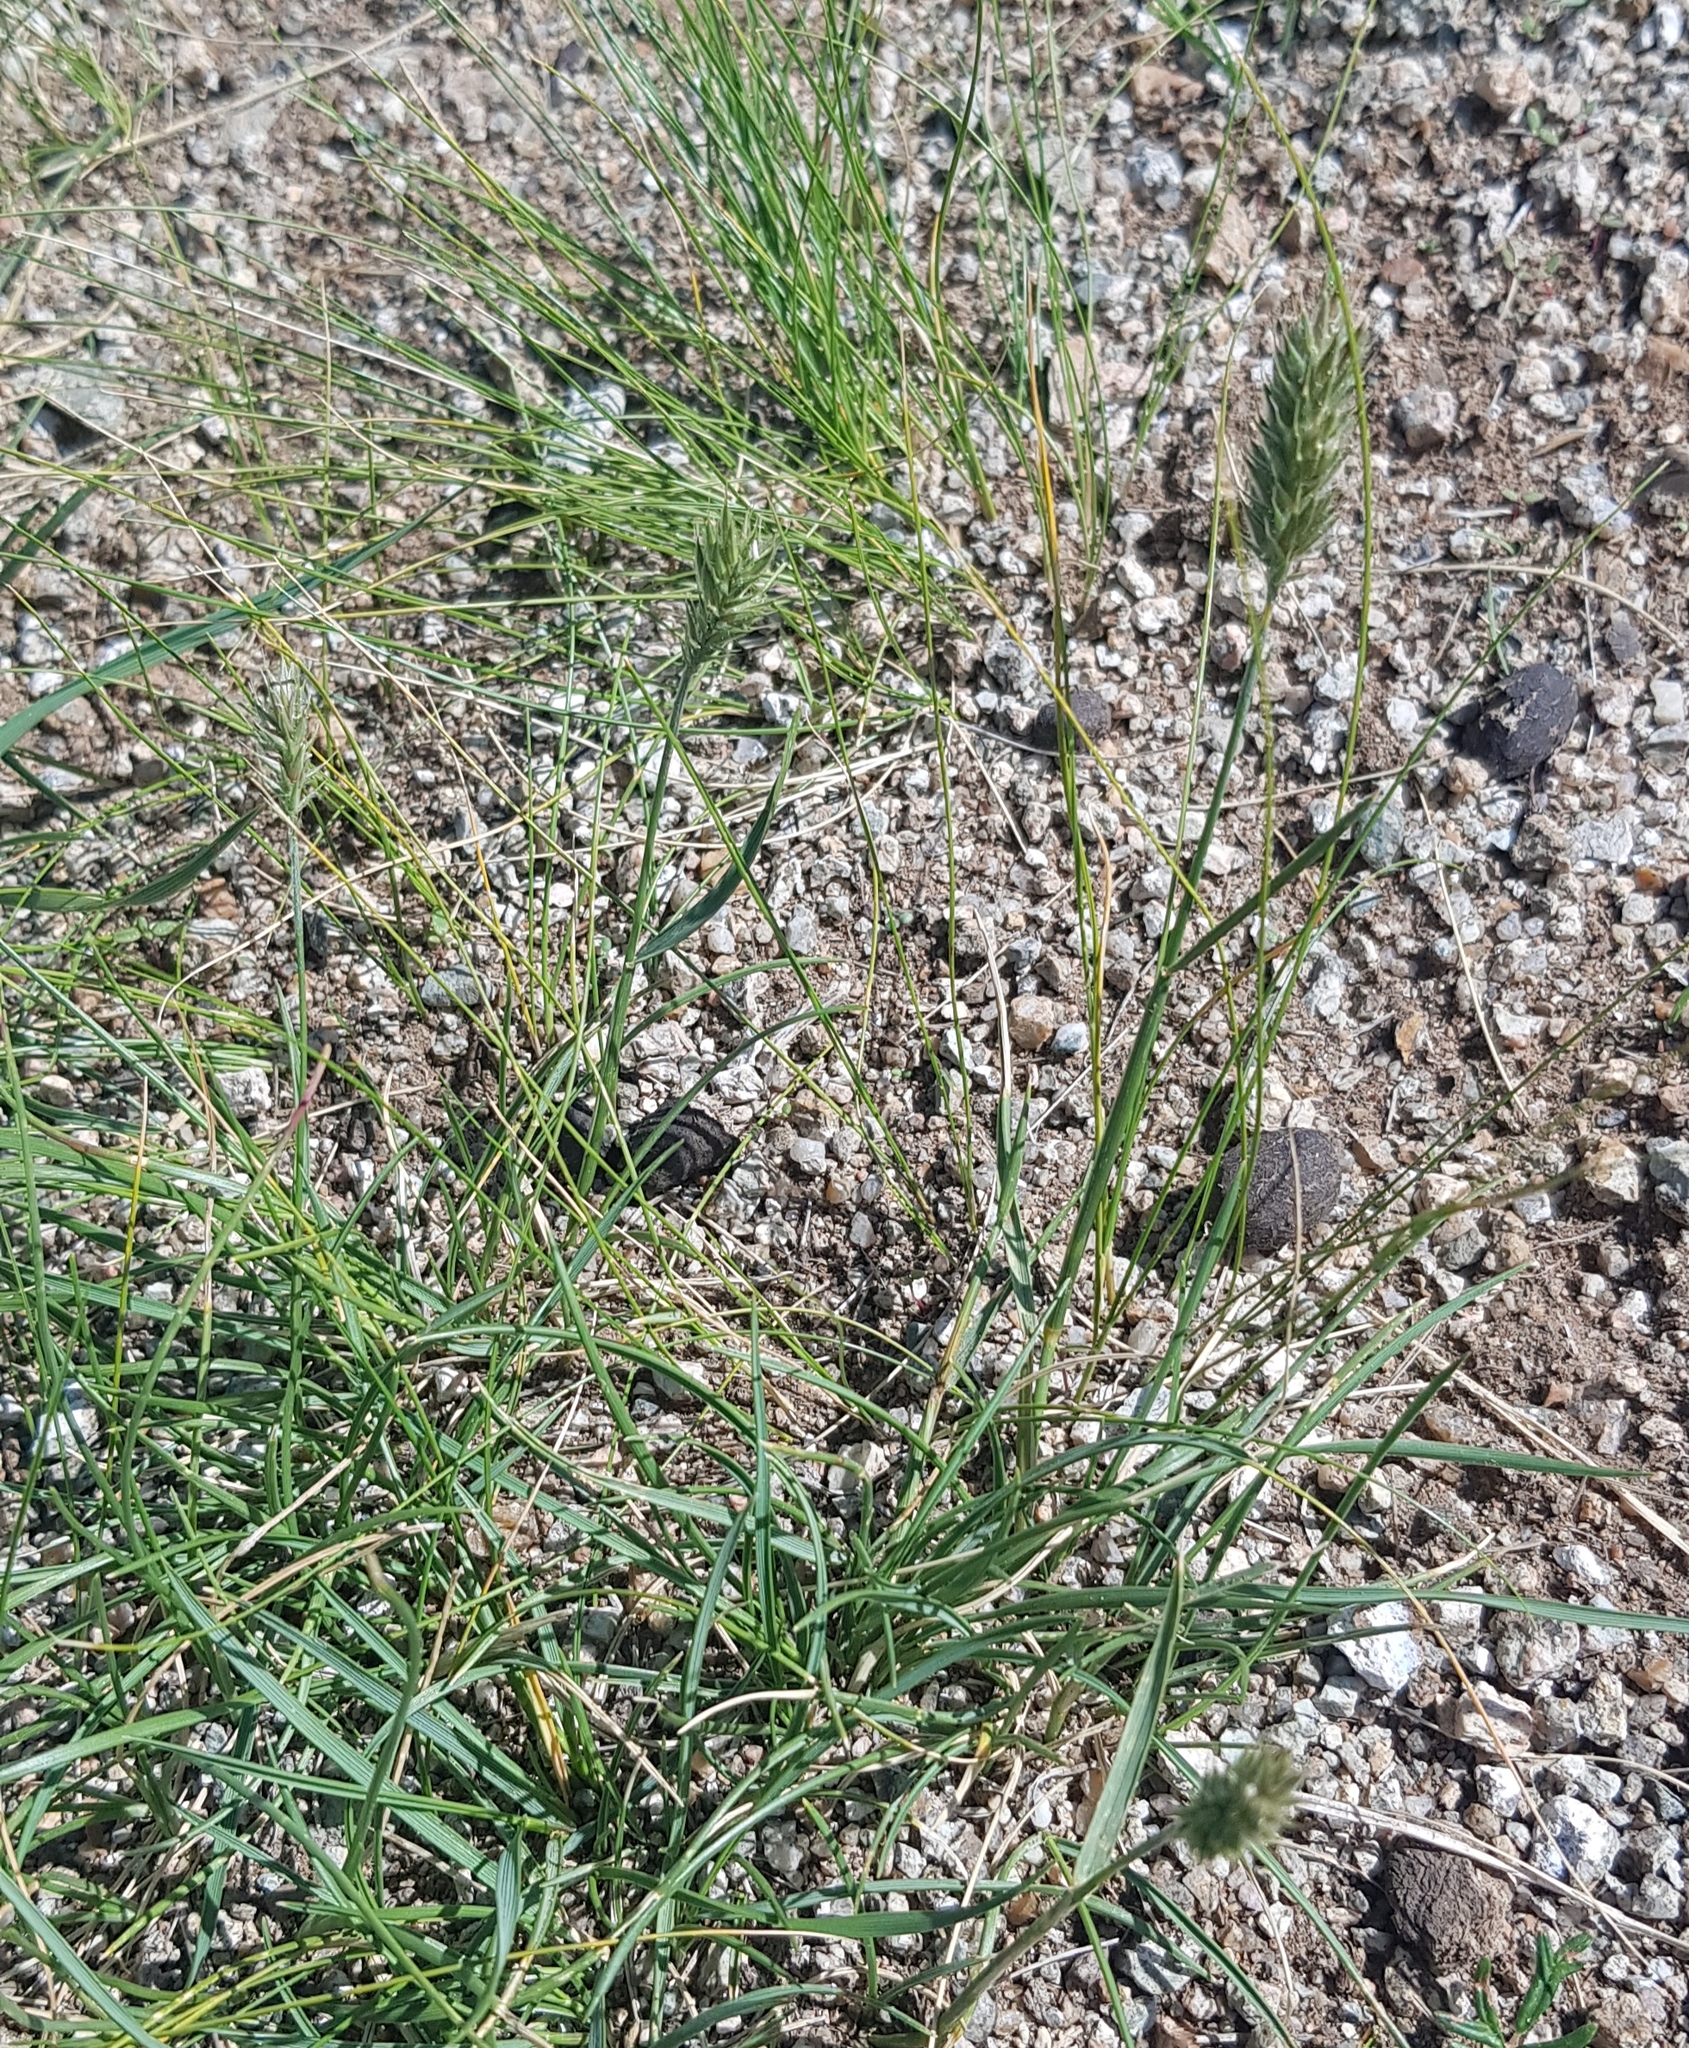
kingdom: Plantae
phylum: Tracheophyta
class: Liliopsida
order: Poales
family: Poaceae
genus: Agropyron
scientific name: Agropyron cristatum
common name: Crested wheatgrass
